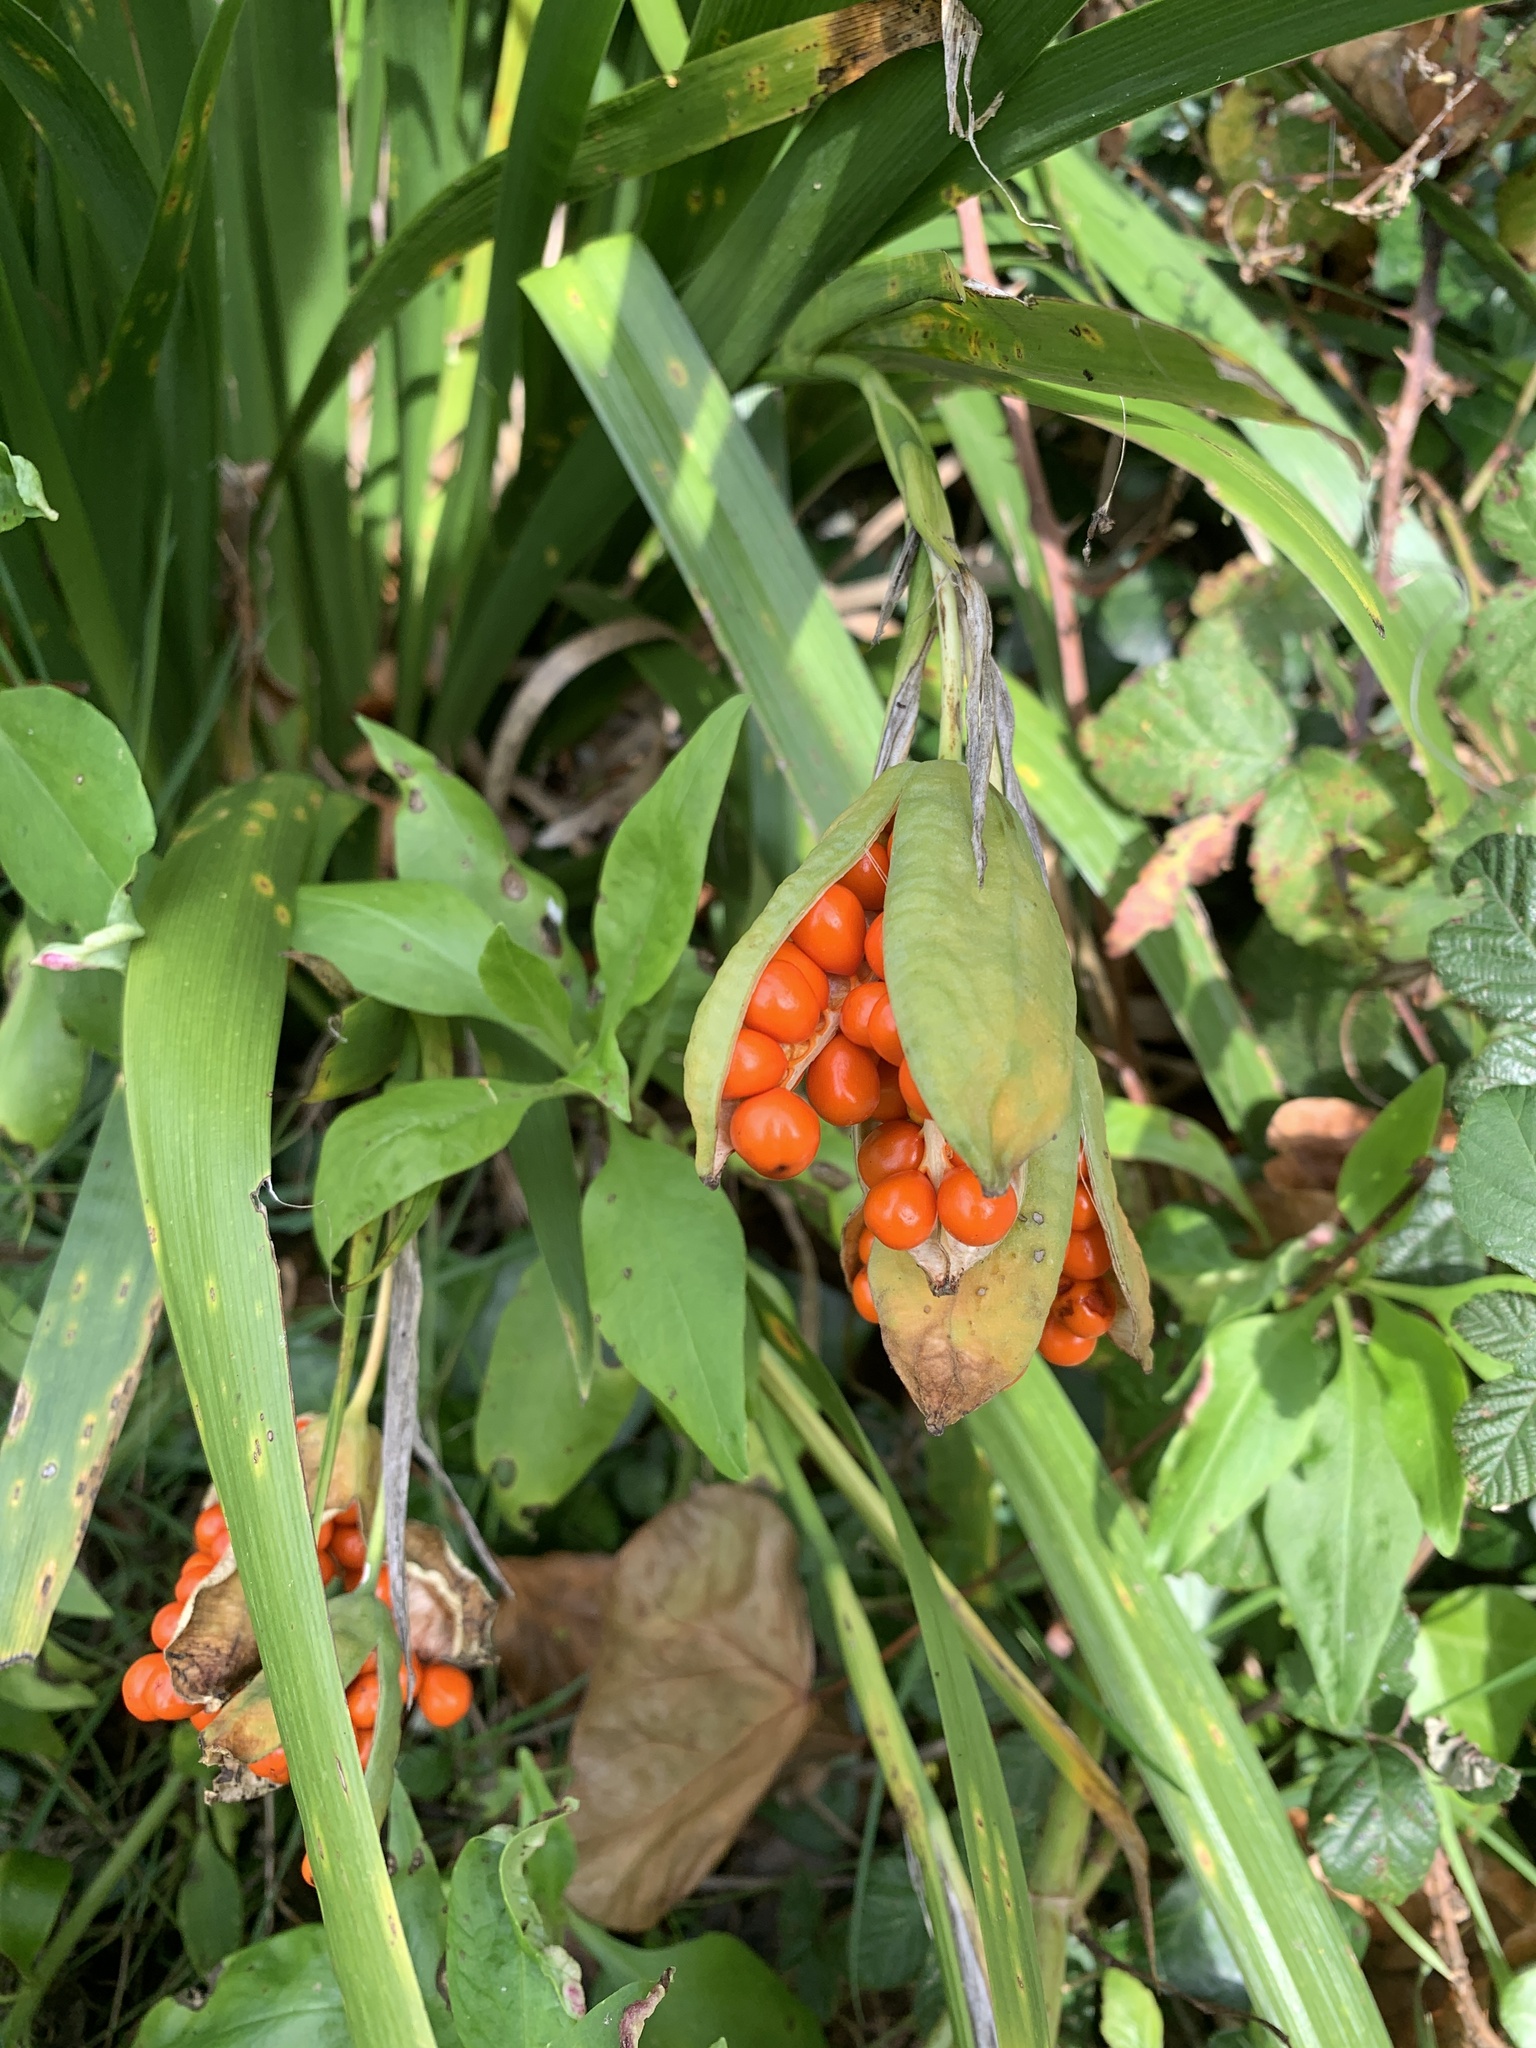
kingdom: Plantae
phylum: Tracheophyta
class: Liliopsida
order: Asparagales
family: Iridaceae
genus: Iris
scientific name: Iris foetidissima
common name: Stinking iris
